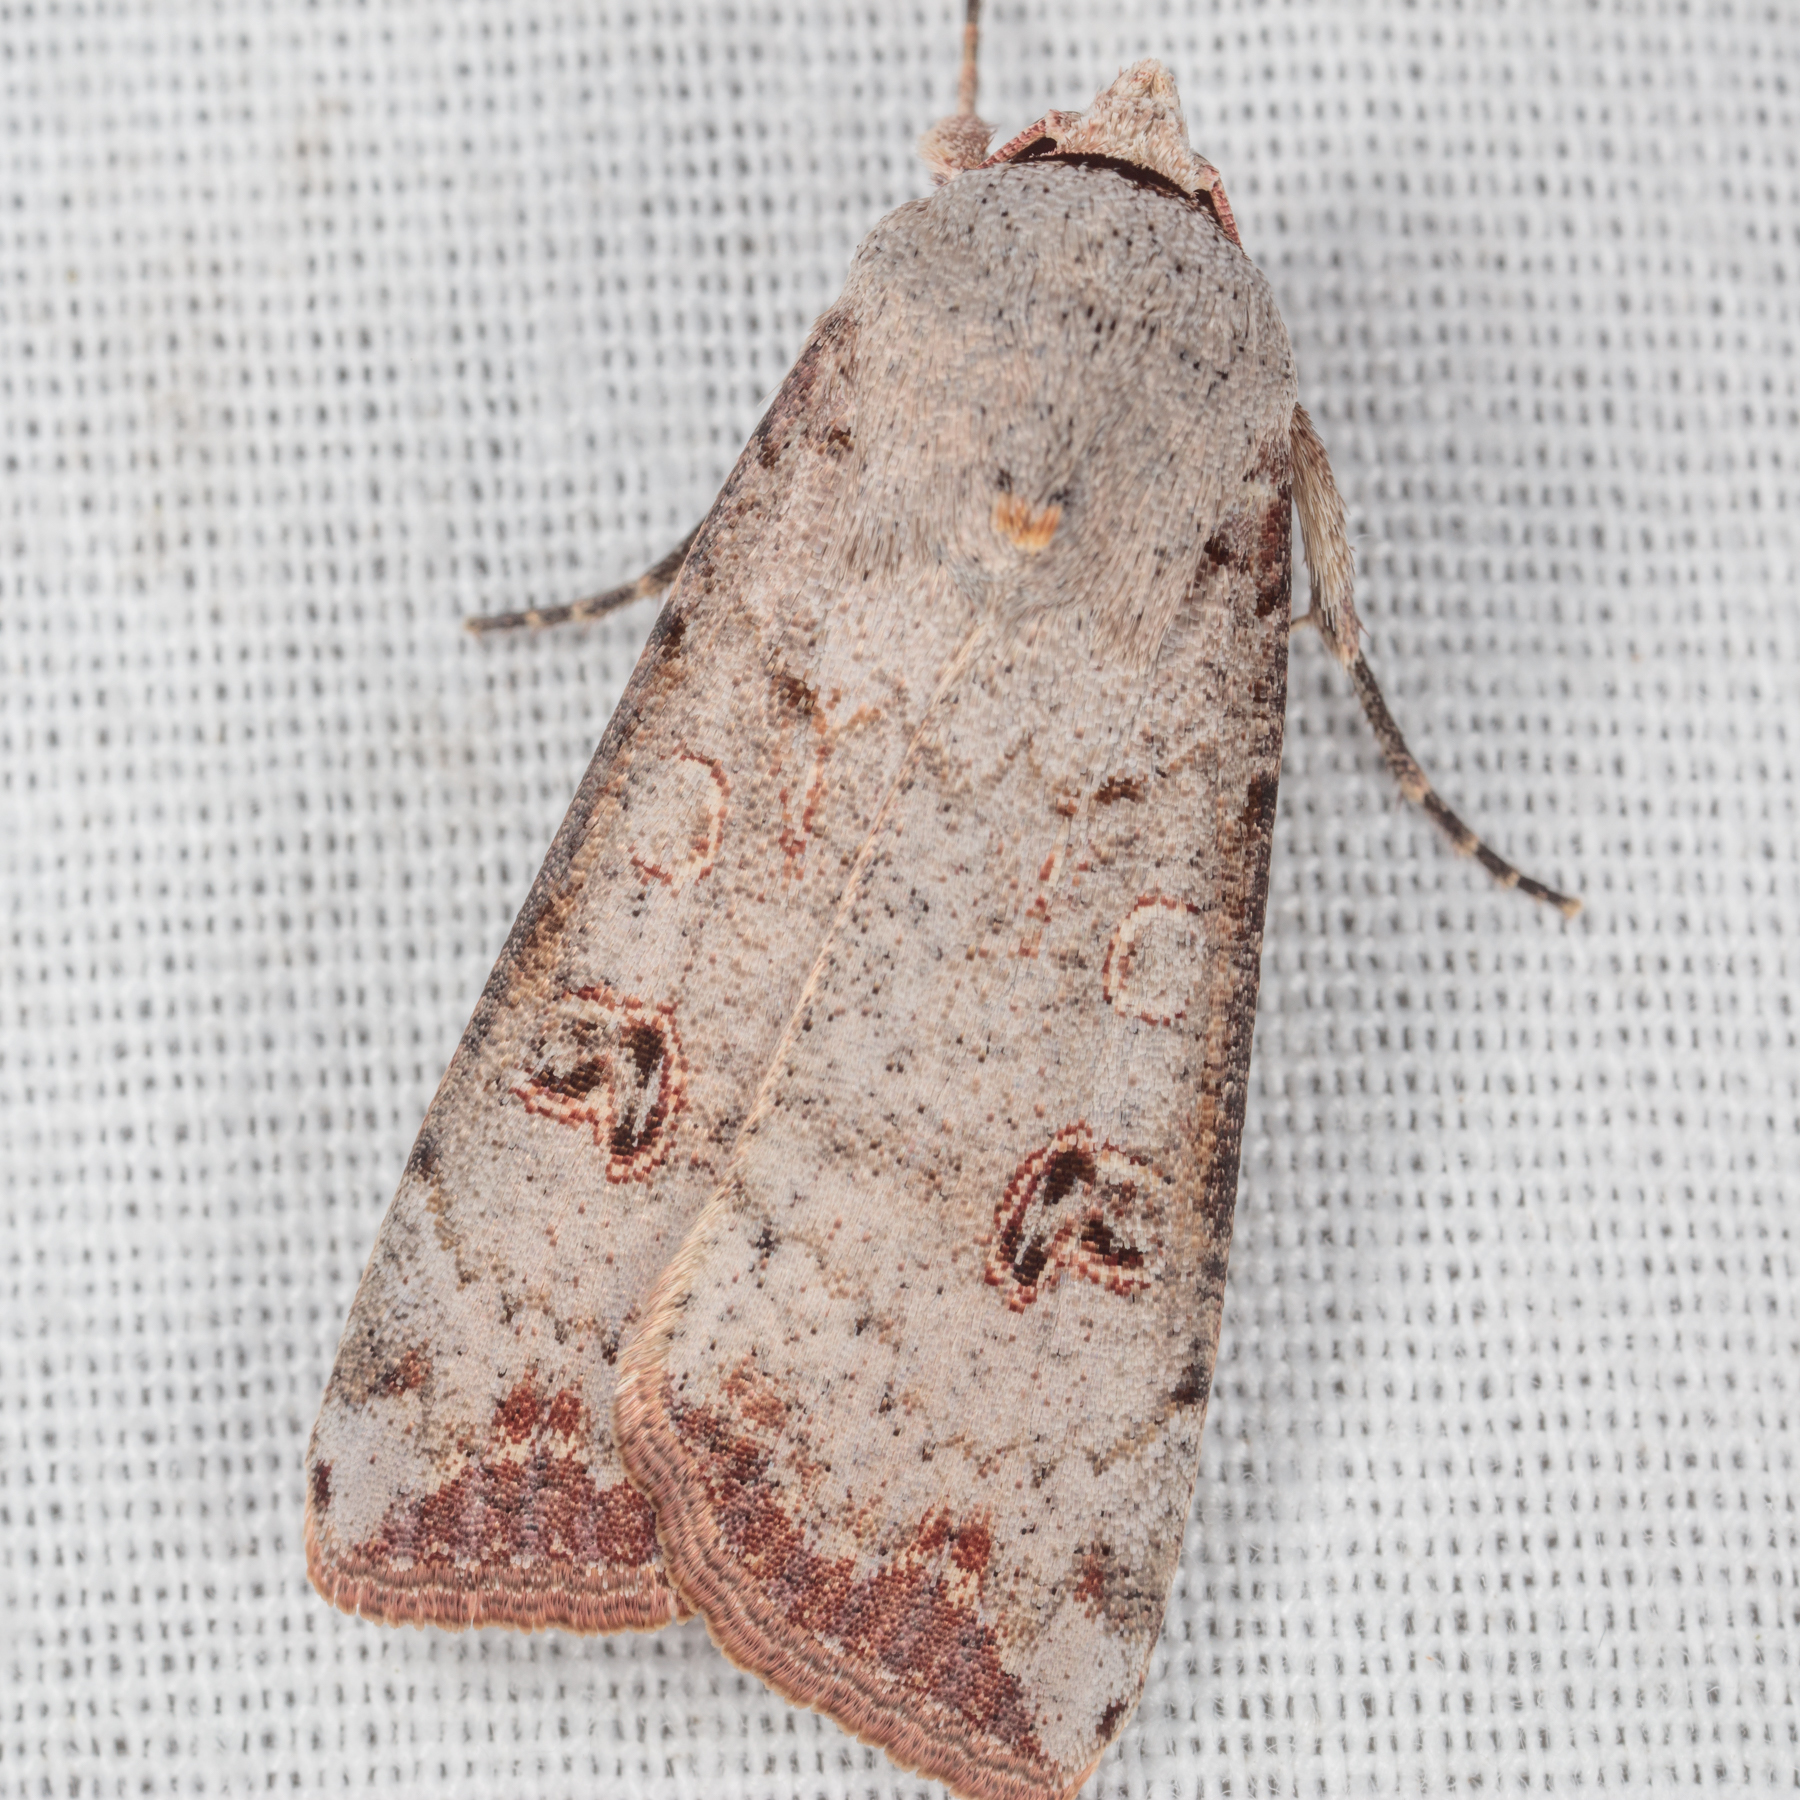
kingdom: Animalia
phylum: Arthropoda
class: Insecta
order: Lepidoptera
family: Noctuidae
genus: Anicla
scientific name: Anicla infecta
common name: Green cutworm
